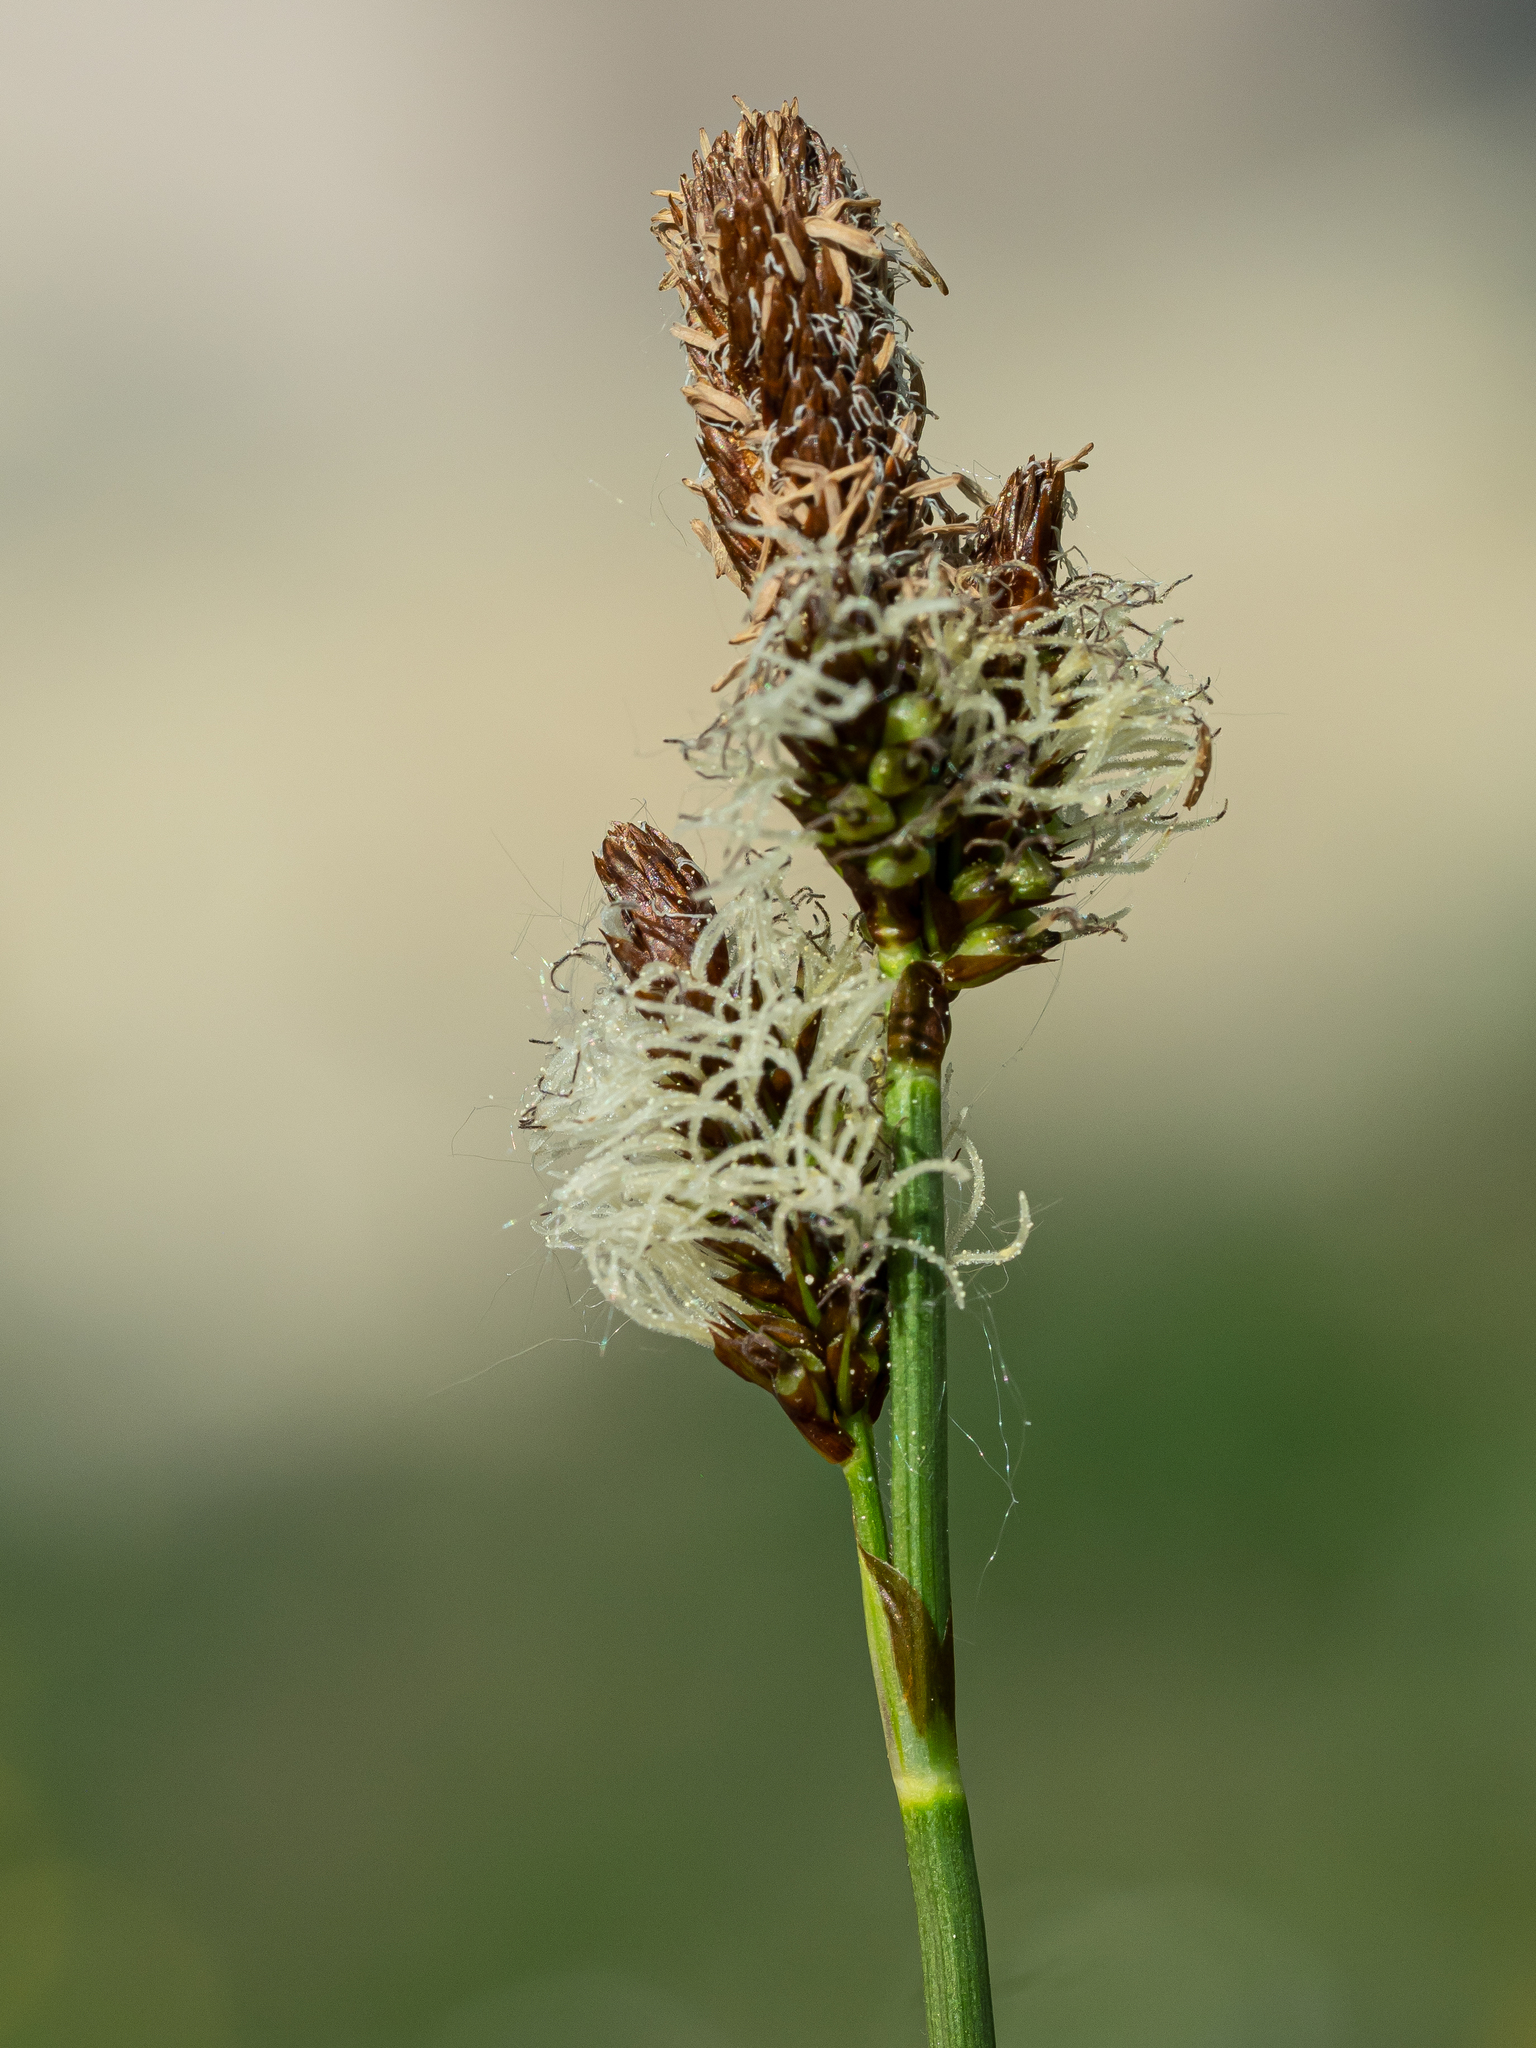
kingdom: Plantae
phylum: Tracheophyta
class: Liliopsida
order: Poales
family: Cyperaceae
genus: Carex
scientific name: Carex caryophyllea
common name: Spring sedge
